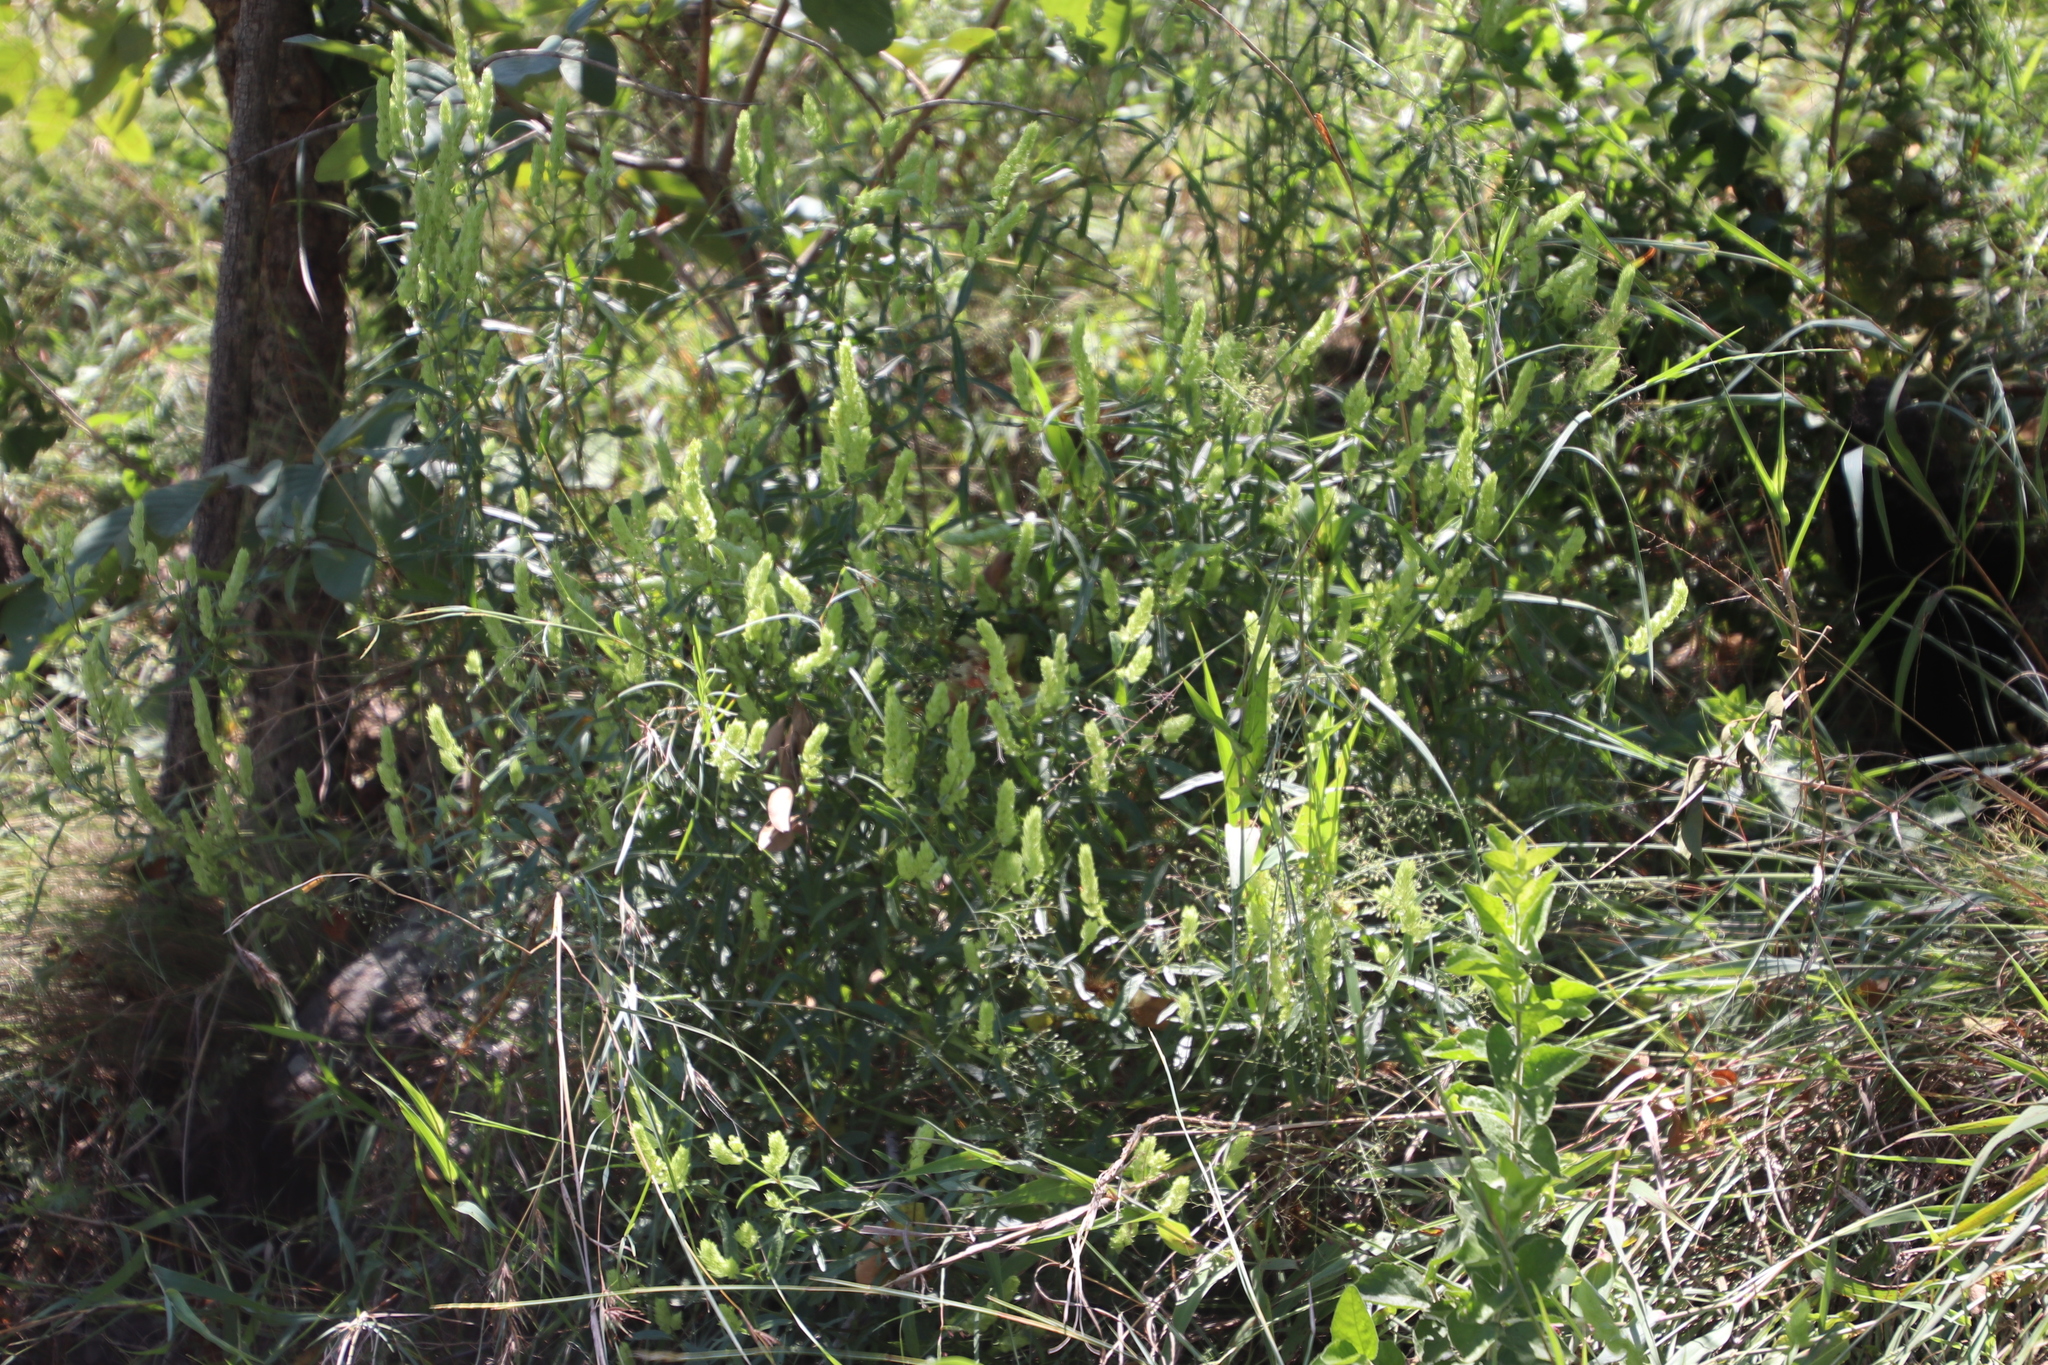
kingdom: Plantae
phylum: Tracheophyta
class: Magnoliopsida
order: Lamiales
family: Acanthaceae
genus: Justicia
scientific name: Justicia betonica
